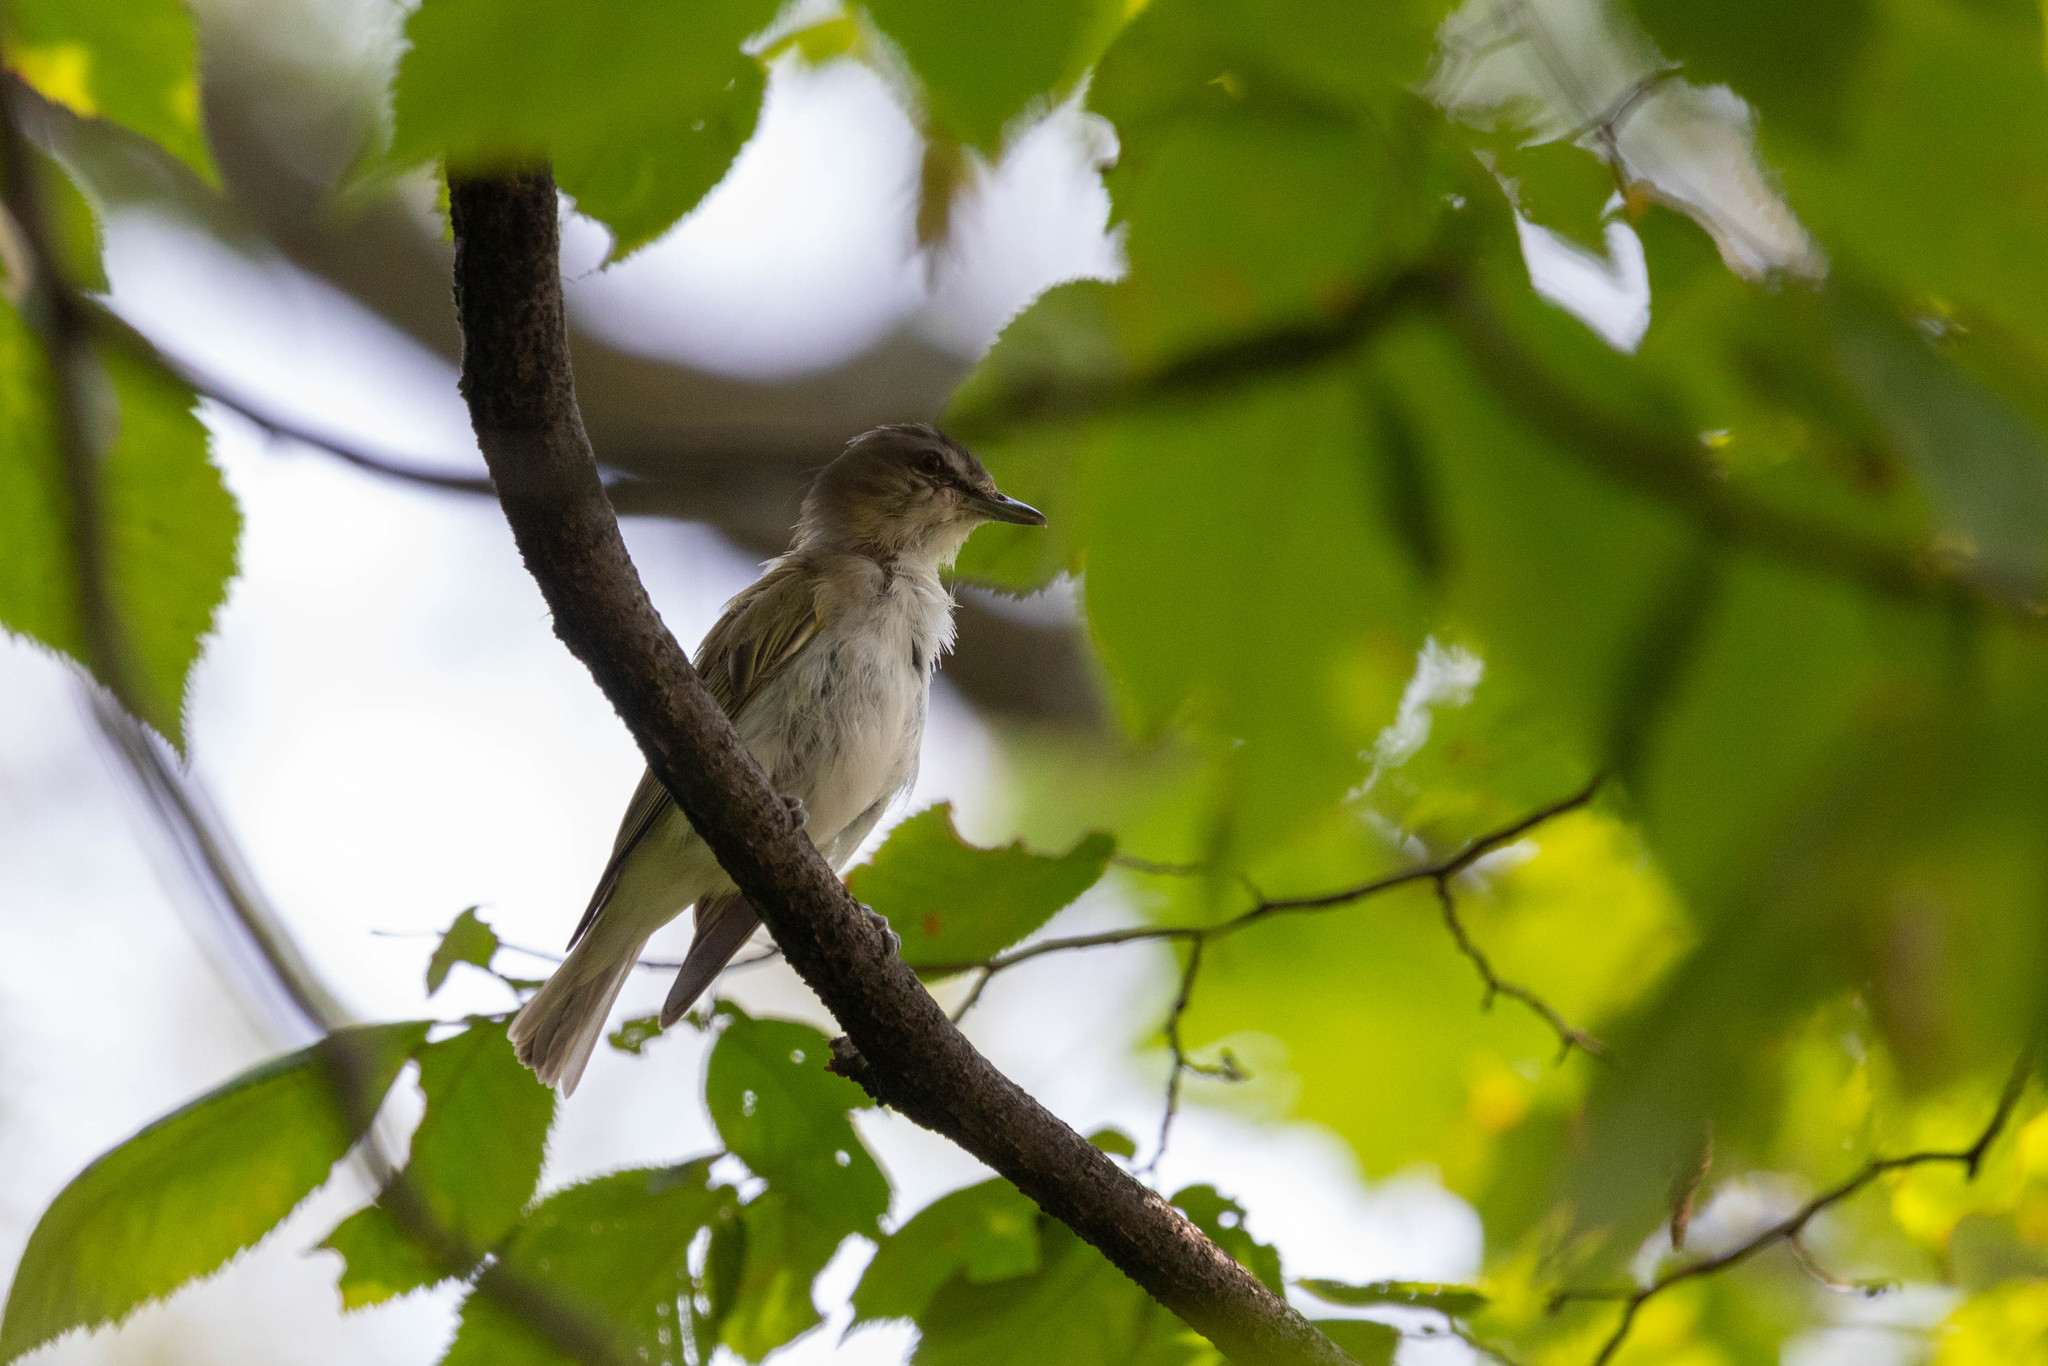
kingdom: Animalia
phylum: Chordata
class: Aves
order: Passeriformes
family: Vireonidae
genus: Vireo
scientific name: Vireo olivaceus
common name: Red-eyed vireo
